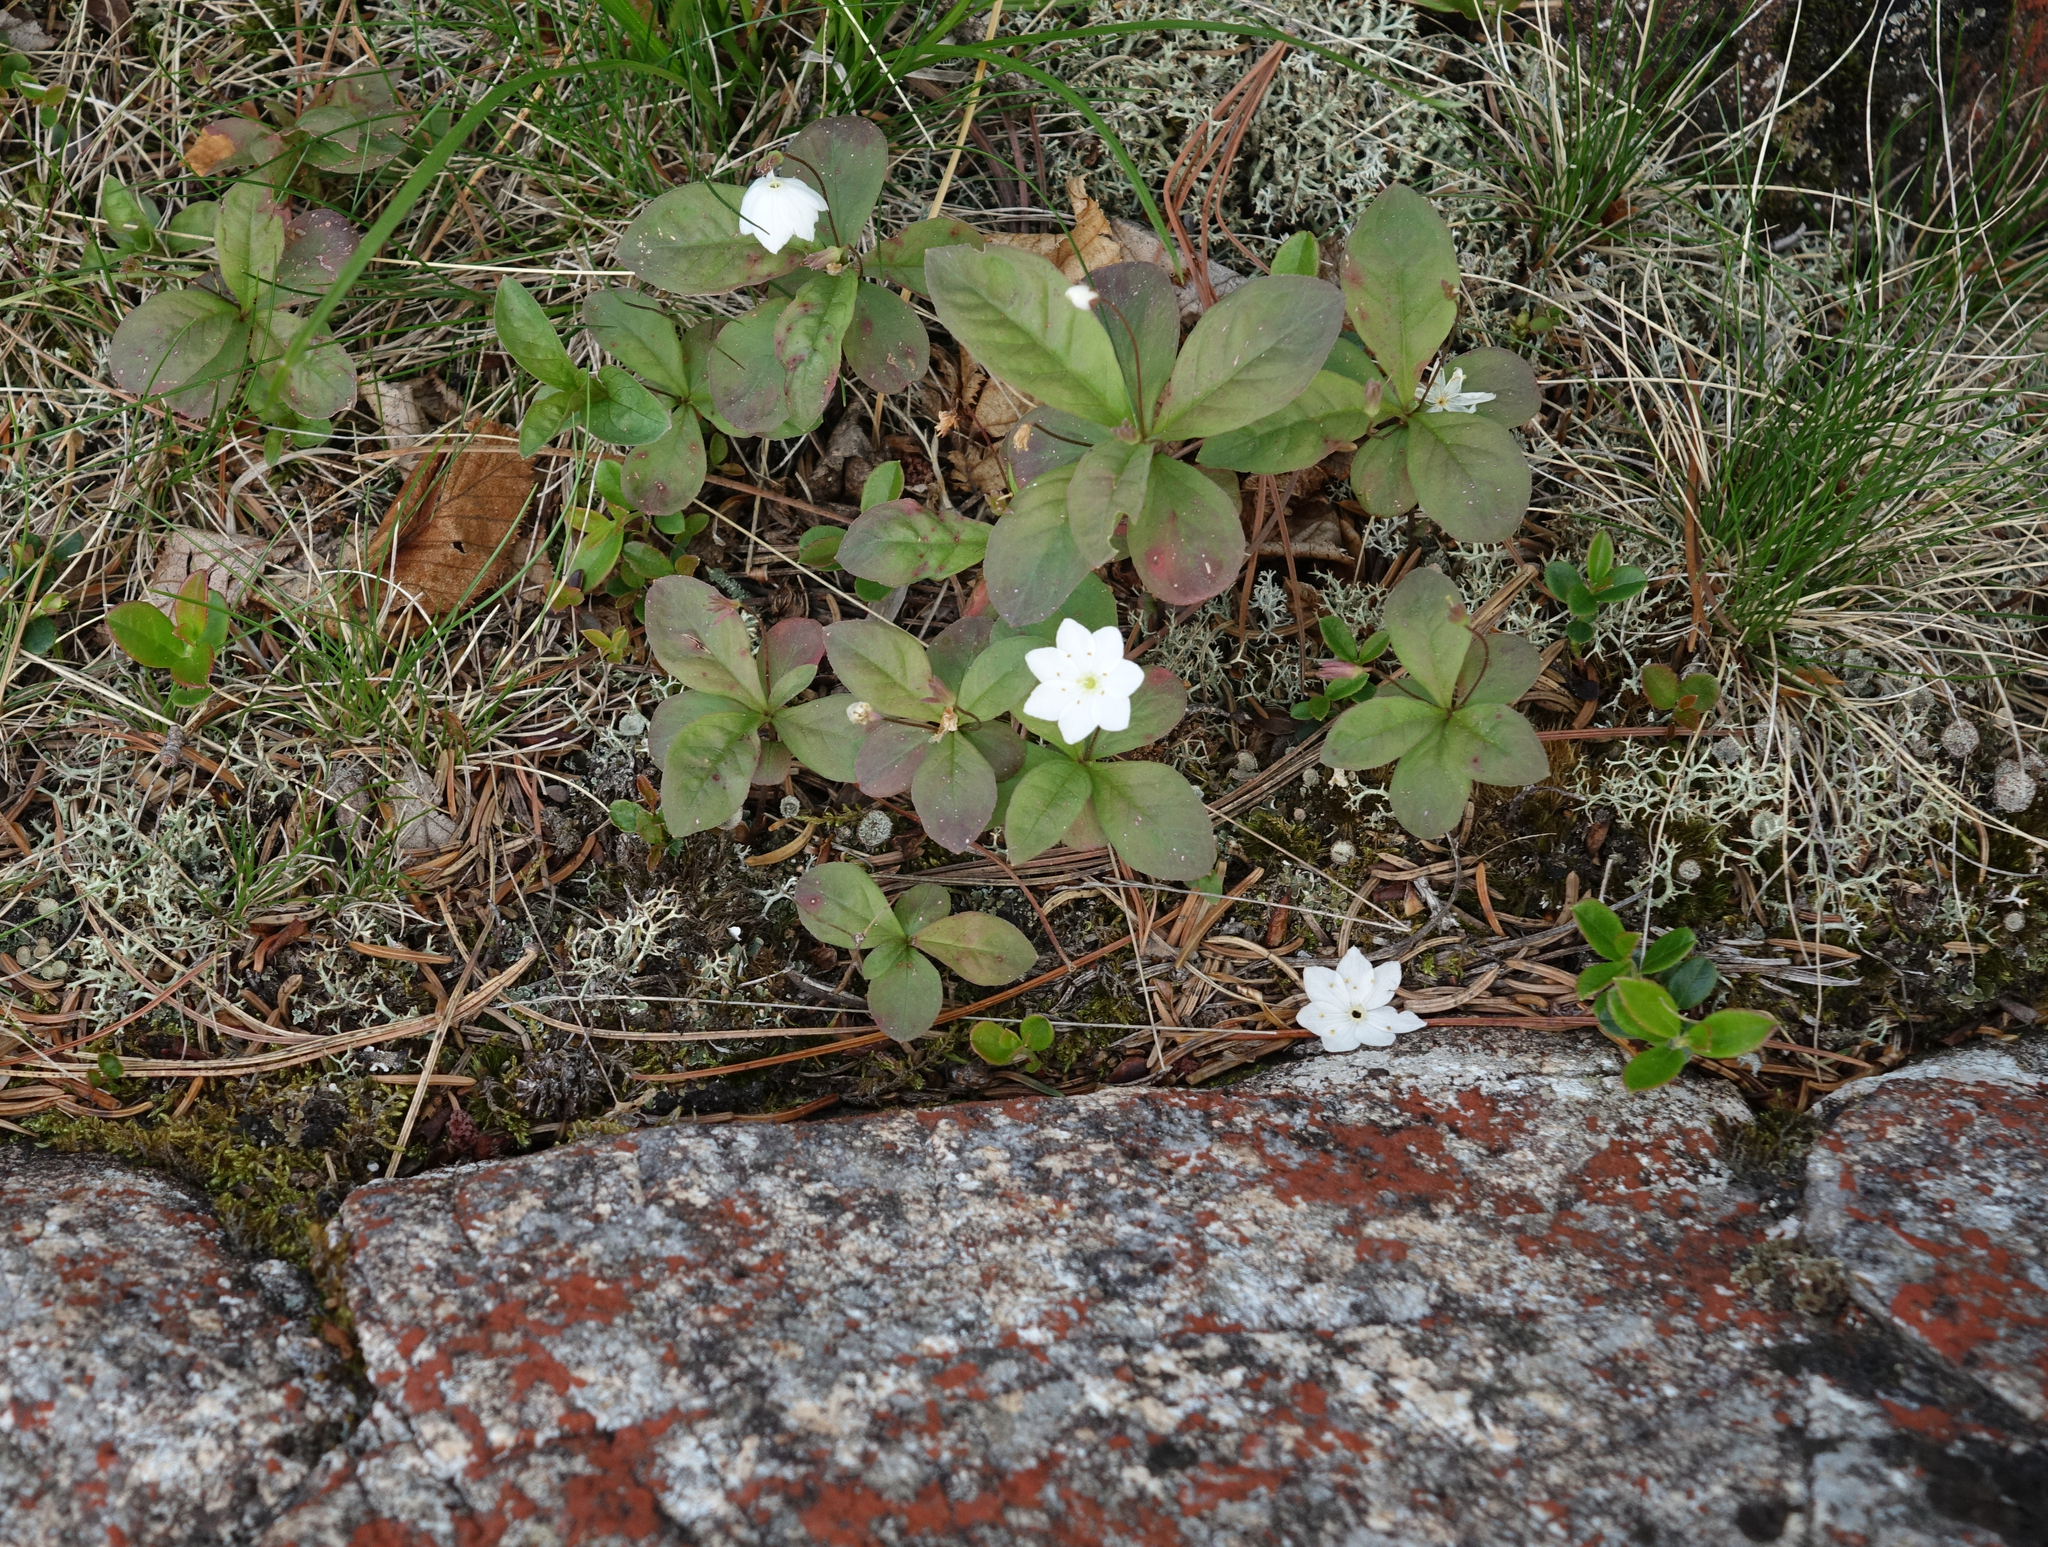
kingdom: Plantae
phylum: Tracheophyta
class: Magnoliopsida
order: Ericales
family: Primulaceae
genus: Lysimachia
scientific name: Lysimachia europaea
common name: Arctic starflower
